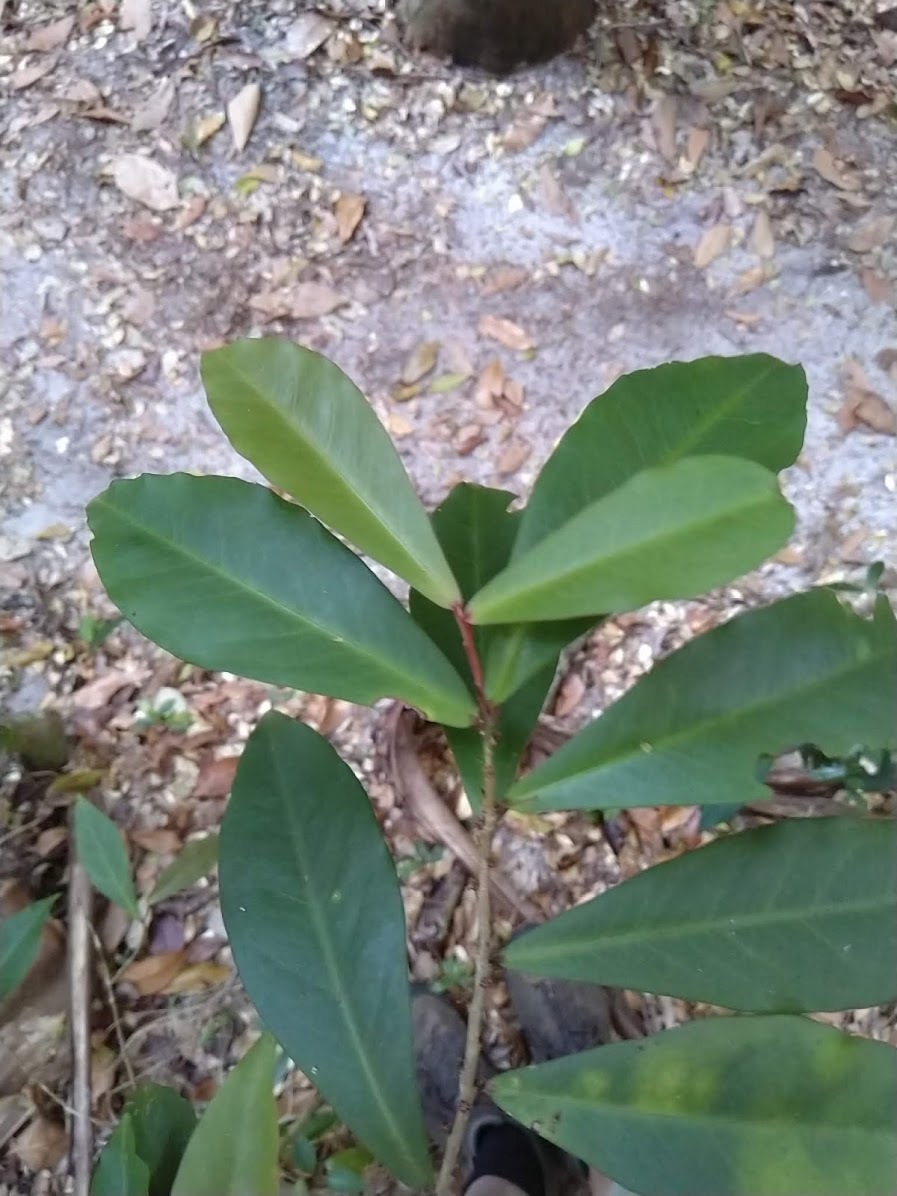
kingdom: Plantae
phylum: Tracheophyta
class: Magnoliopsida
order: Ericales
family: Primulaceae
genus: Myrsine
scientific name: Myrsine subsessilis
